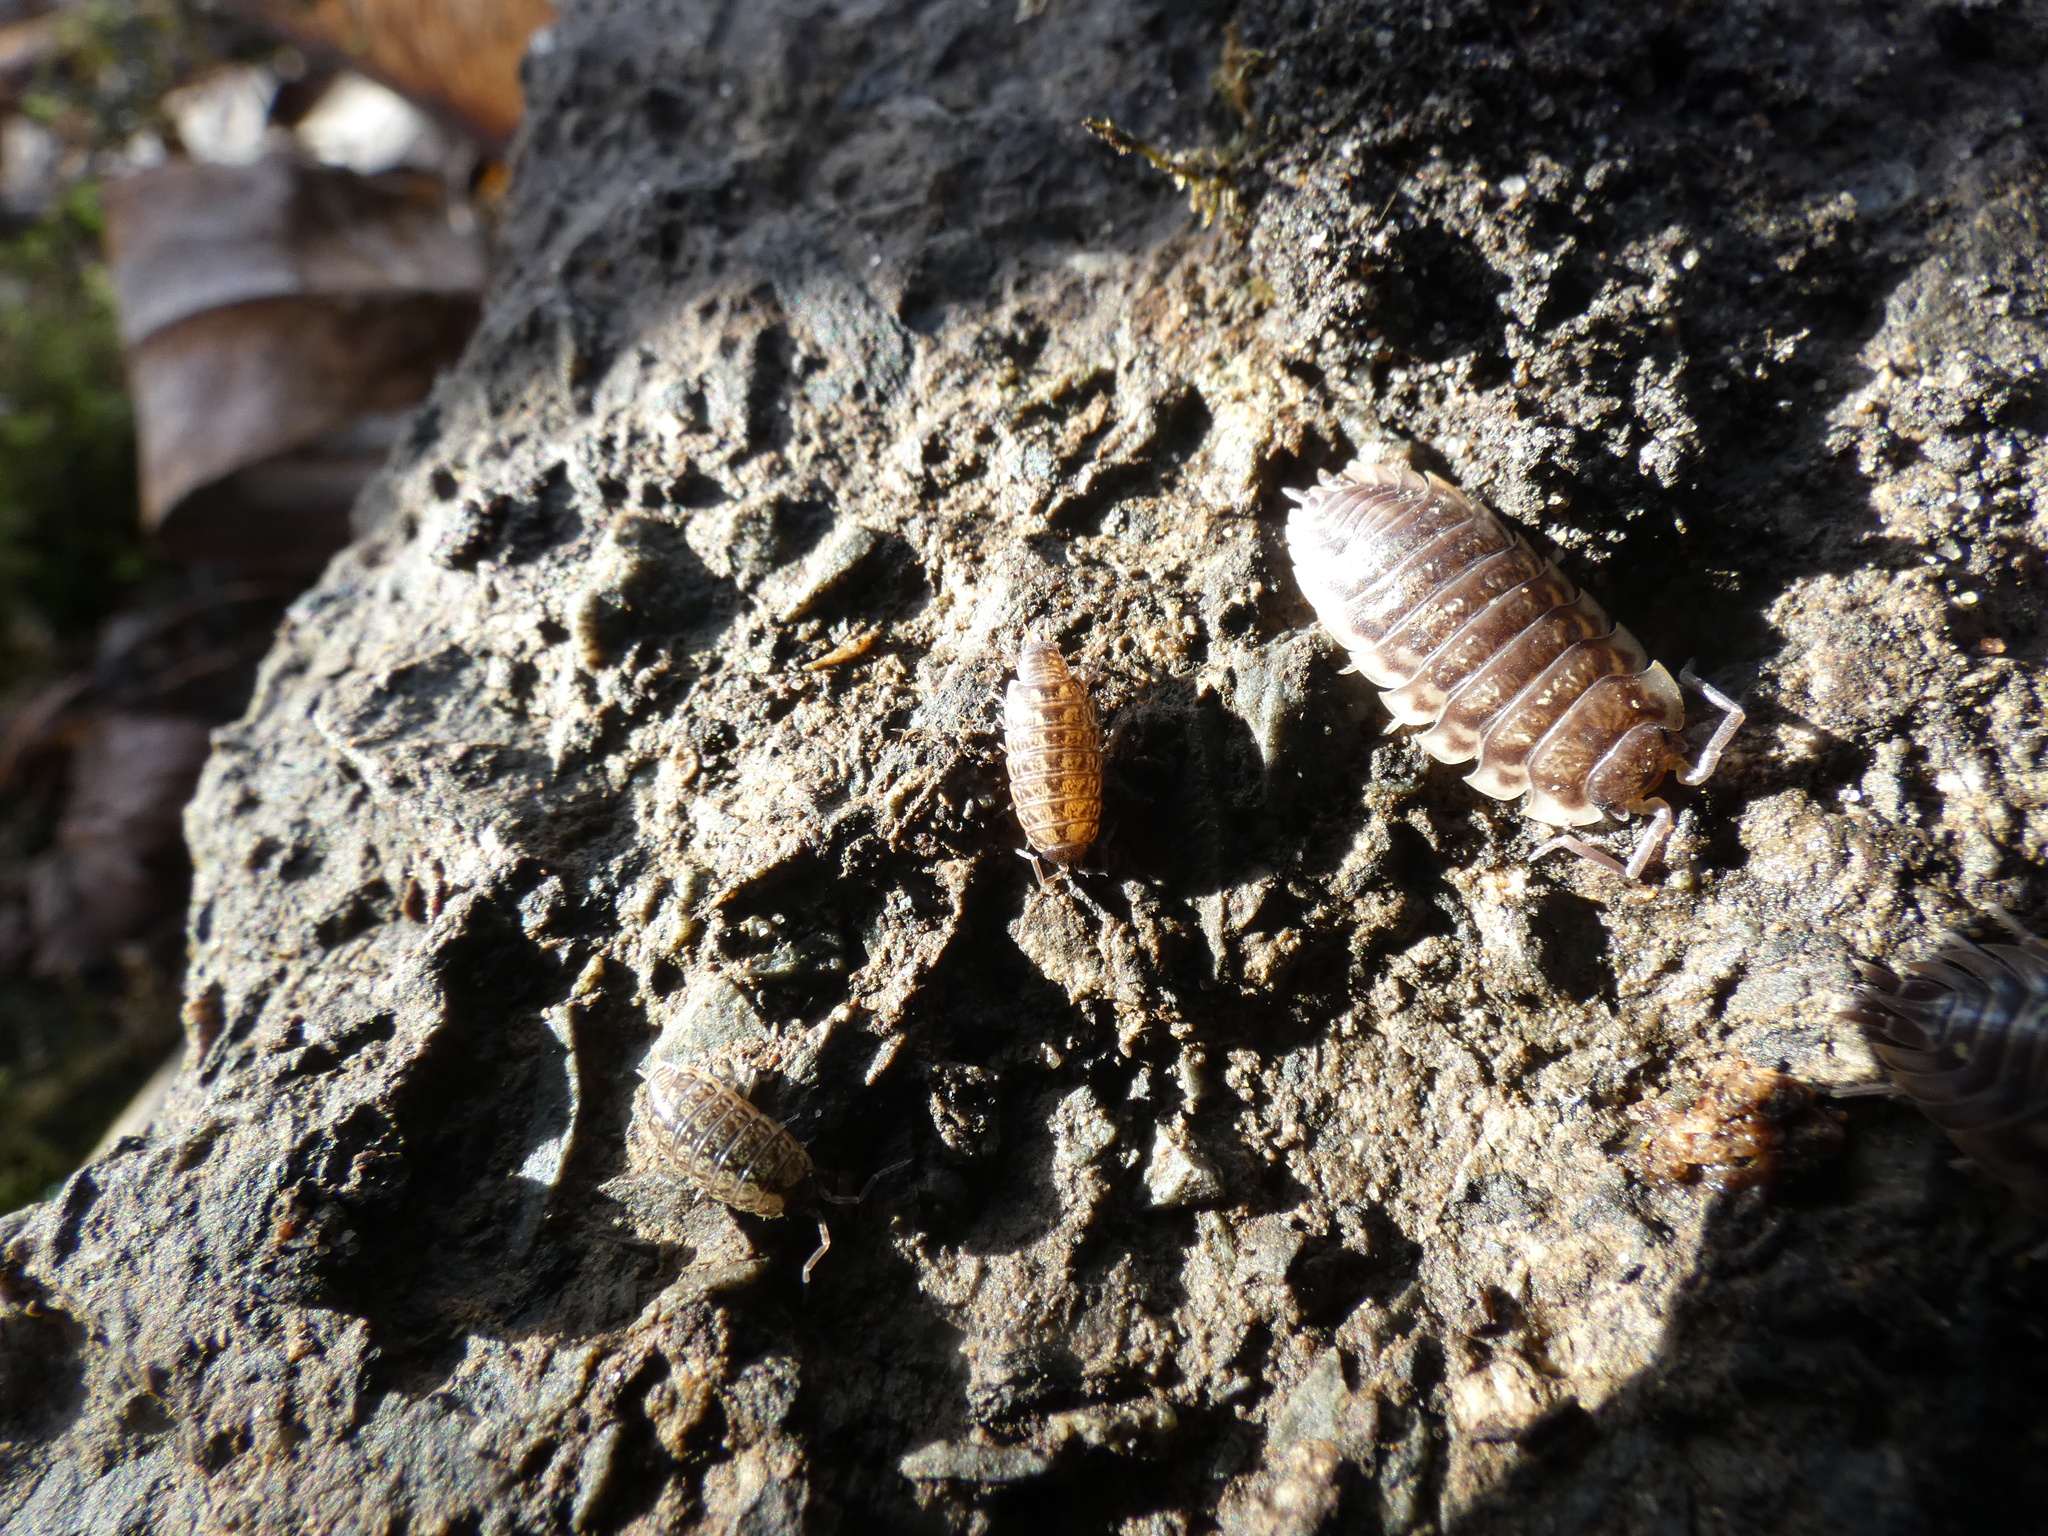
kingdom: Animalia
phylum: Arthropoda
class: Malacostraca
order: Isopoda
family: Oniscidae
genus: Oniscus
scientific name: Oniscus asellus
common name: Common shiny woodlouse
